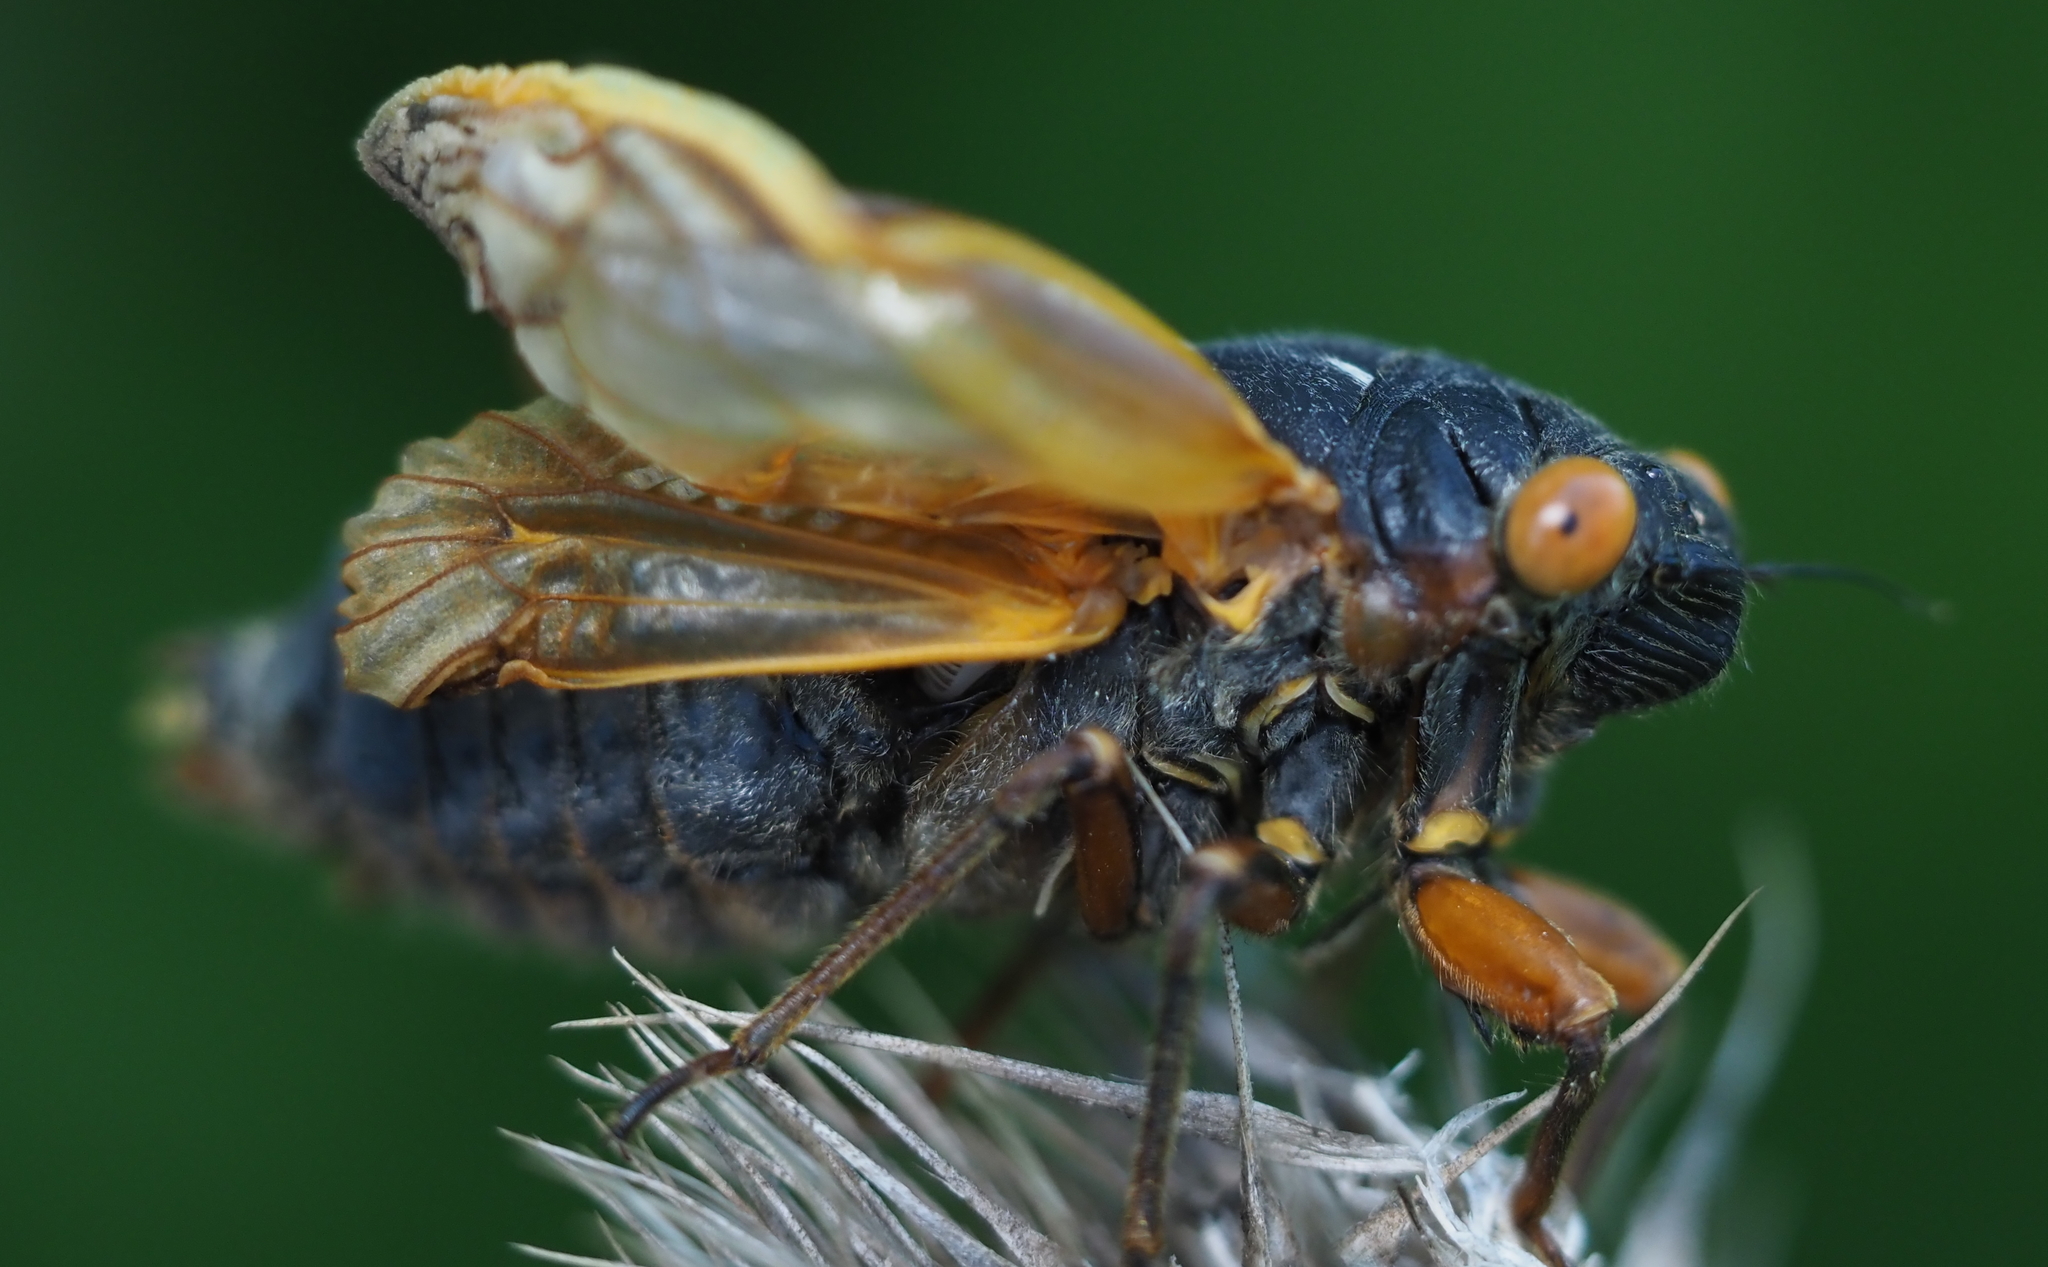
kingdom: Animalia
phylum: Arthropoda
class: Insecta
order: Hemiptera
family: Cicadidae
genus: Magicicada
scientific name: Magicicada septendecim
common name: Periodical cicada
